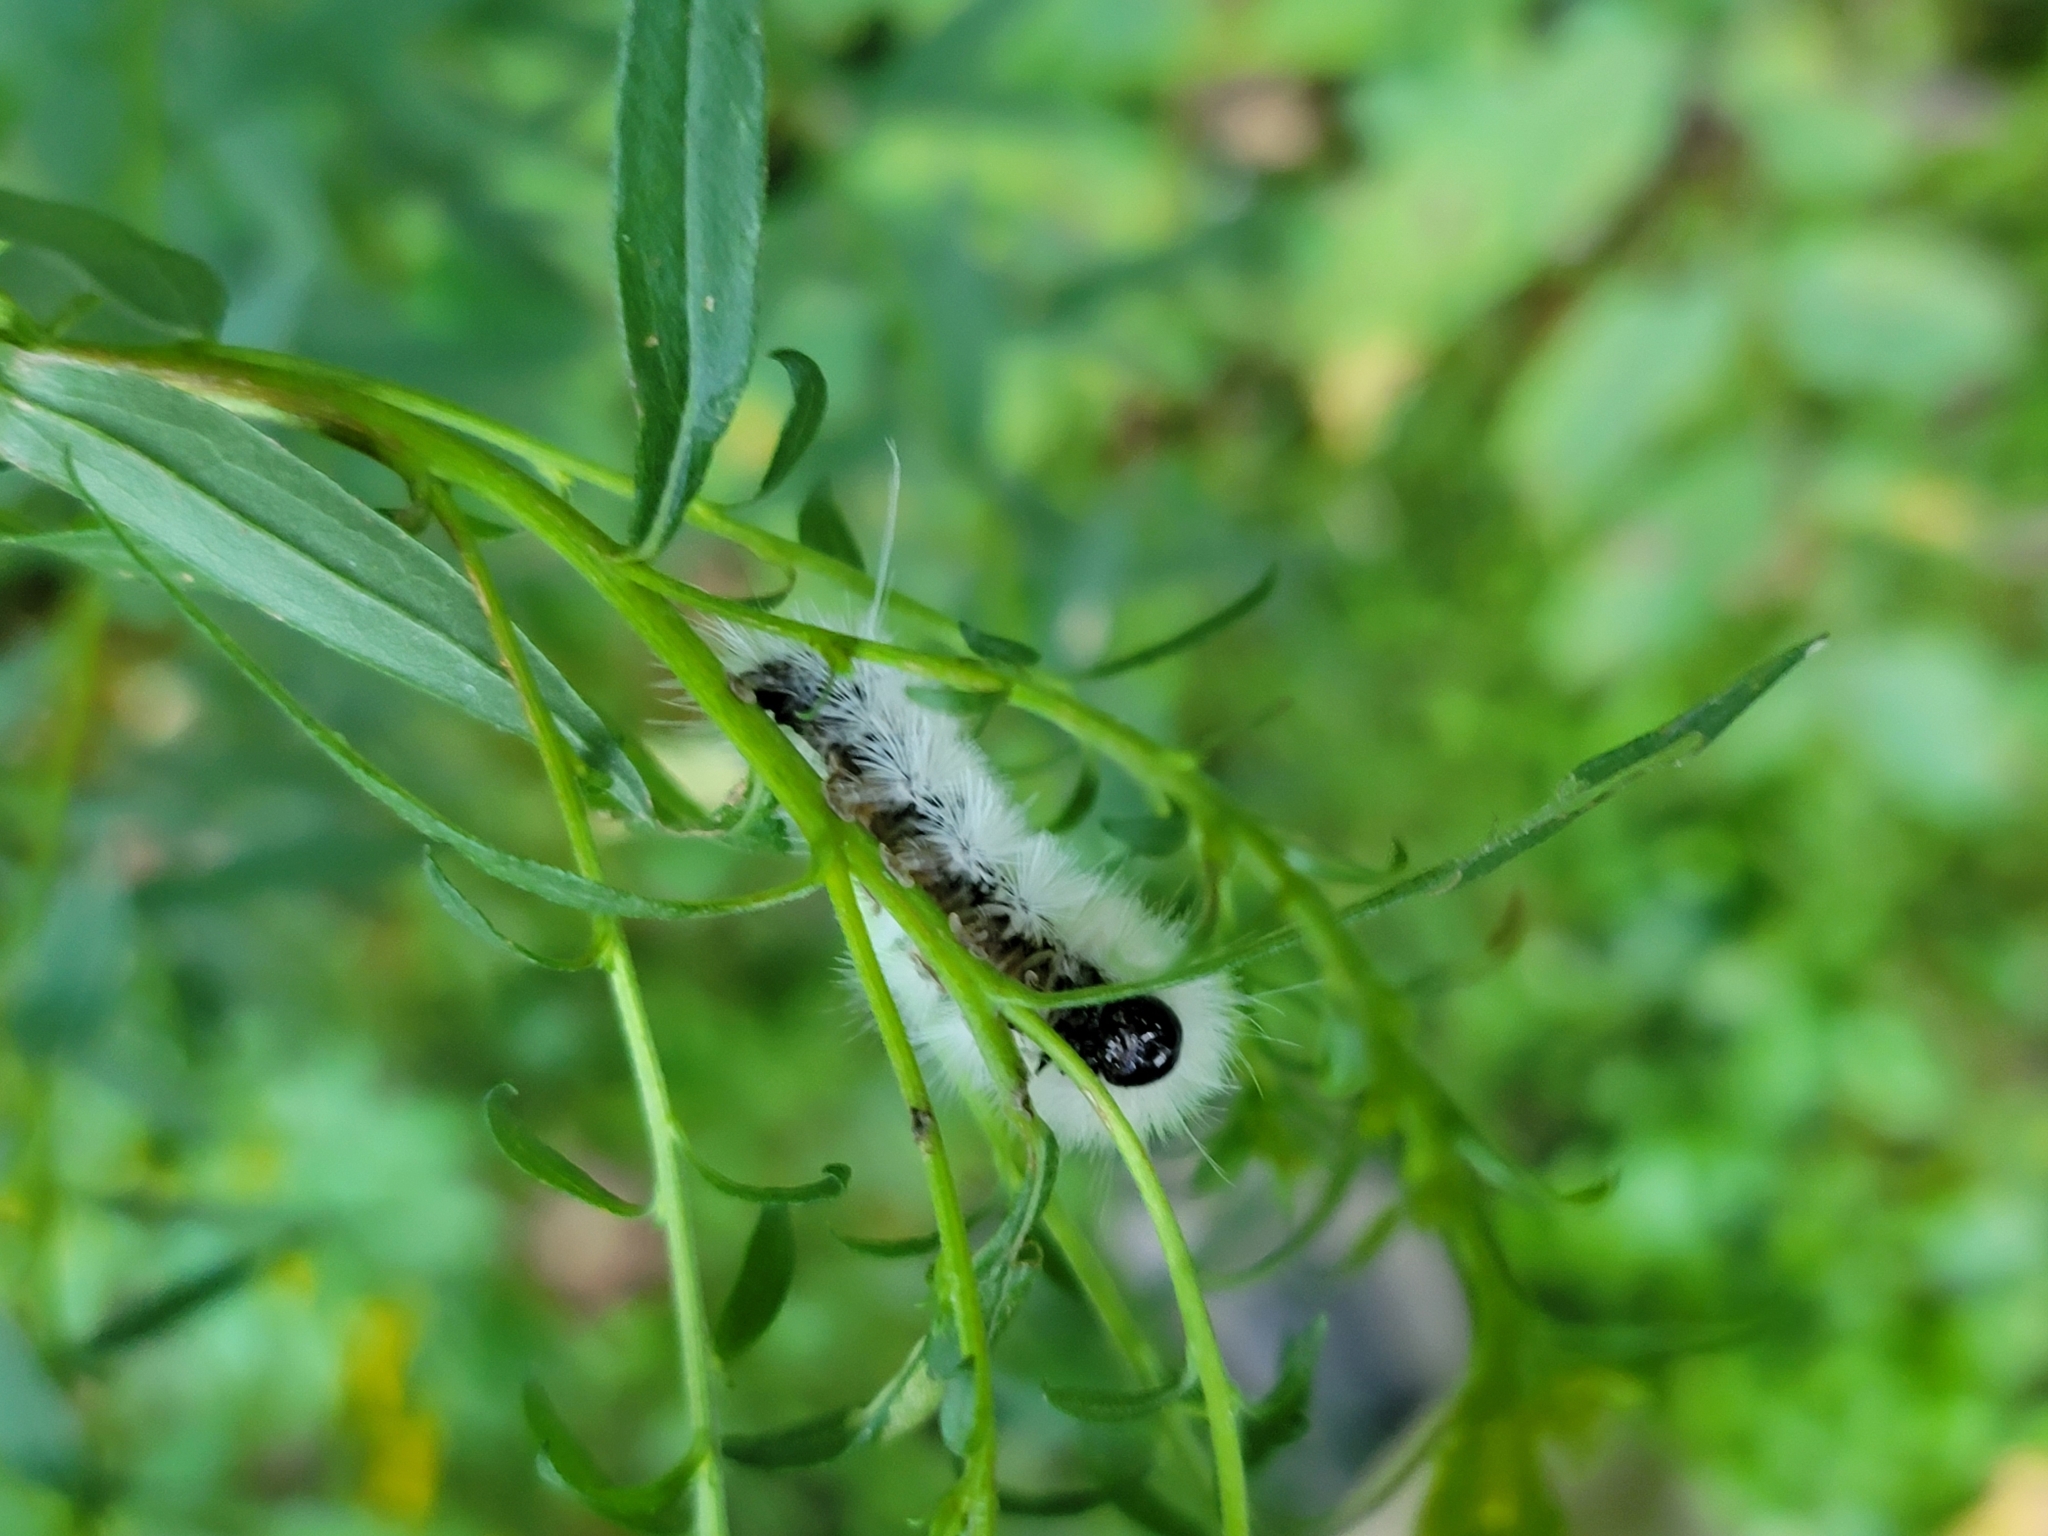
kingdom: Animalia
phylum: Arthropoda
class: Insecta
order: Lepidoptera
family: Erebidae
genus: Lophocampa
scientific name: Lophocampa caryae
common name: Hickory tussock moth
